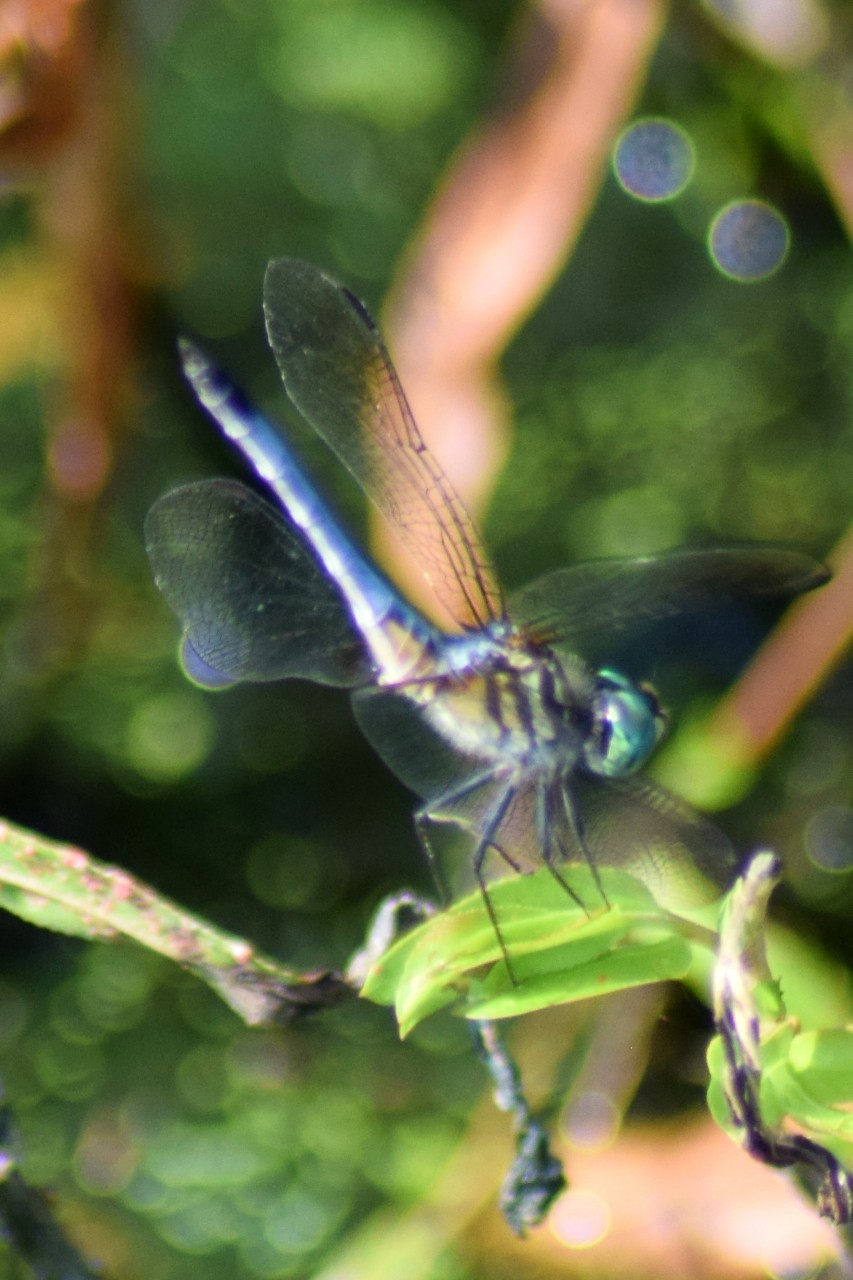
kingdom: Animalia
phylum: Arthropoda
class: Insecta
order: Odonata
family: Libellulidae
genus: Pachydiplax
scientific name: Pachydiplax longipennis
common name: Blue dasher
